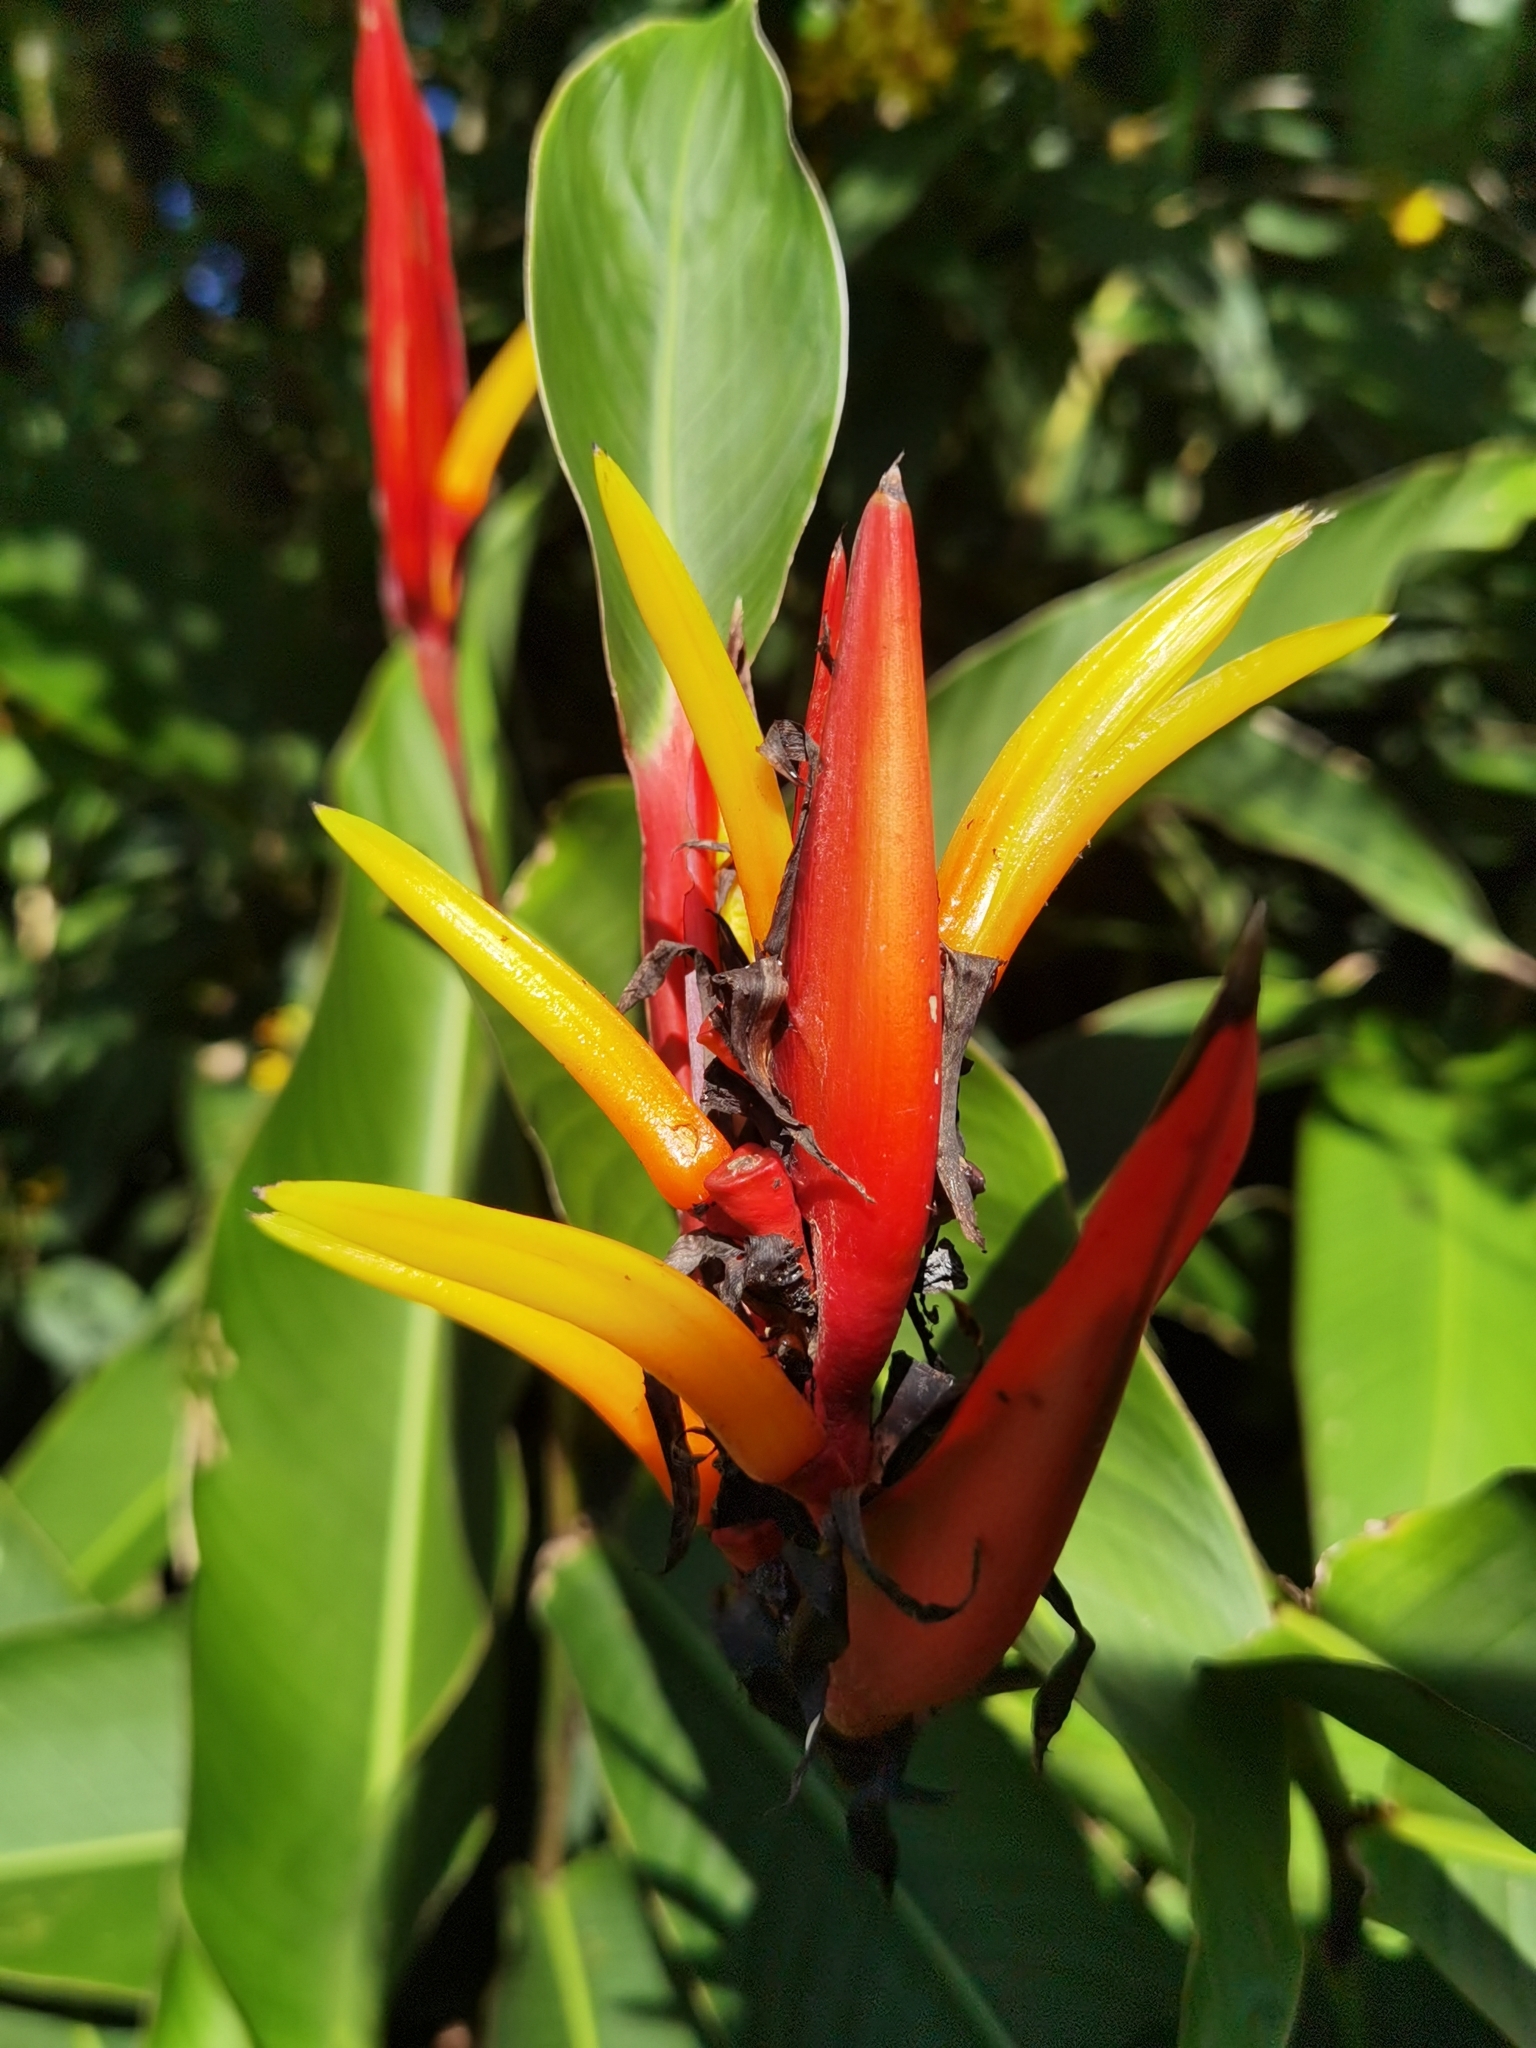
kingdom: Plantae
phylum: Tracheophyta
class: Liliopsida
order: Zingiberales
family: Heliconiaceae
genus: Heliconia
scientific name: Heliconia mathiasiae
